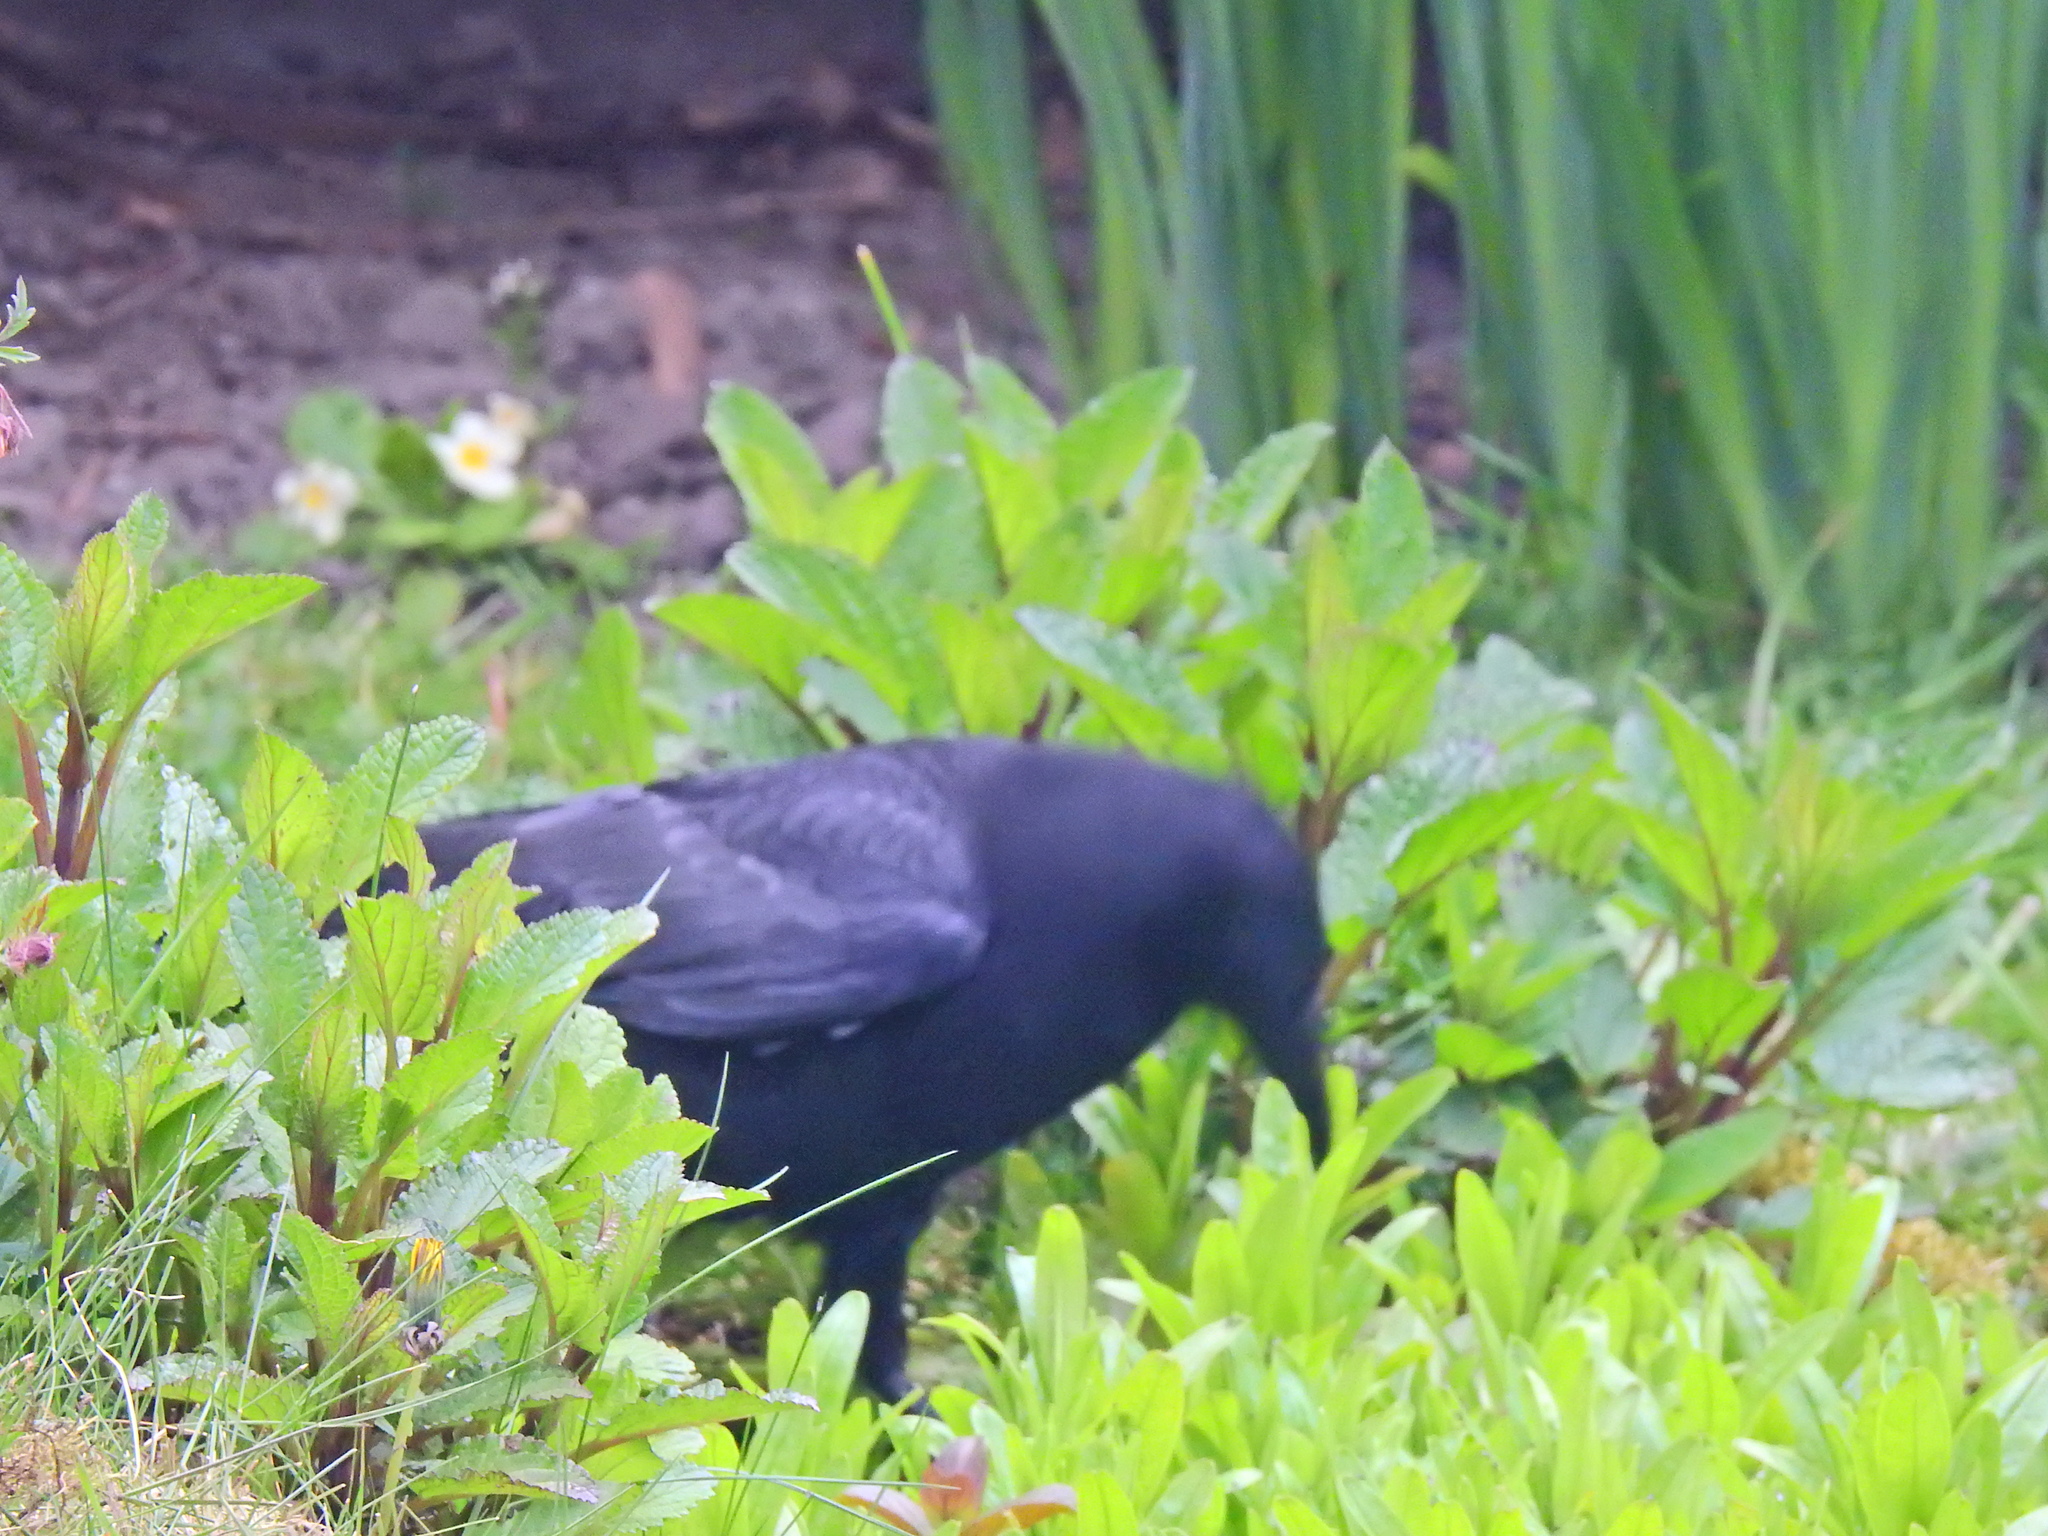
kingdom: Animalia
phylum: Chordata
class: Aves
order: Passeriformes
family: Corvidae
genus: Corvus
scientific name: Corvus corone
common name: Carrion crow
